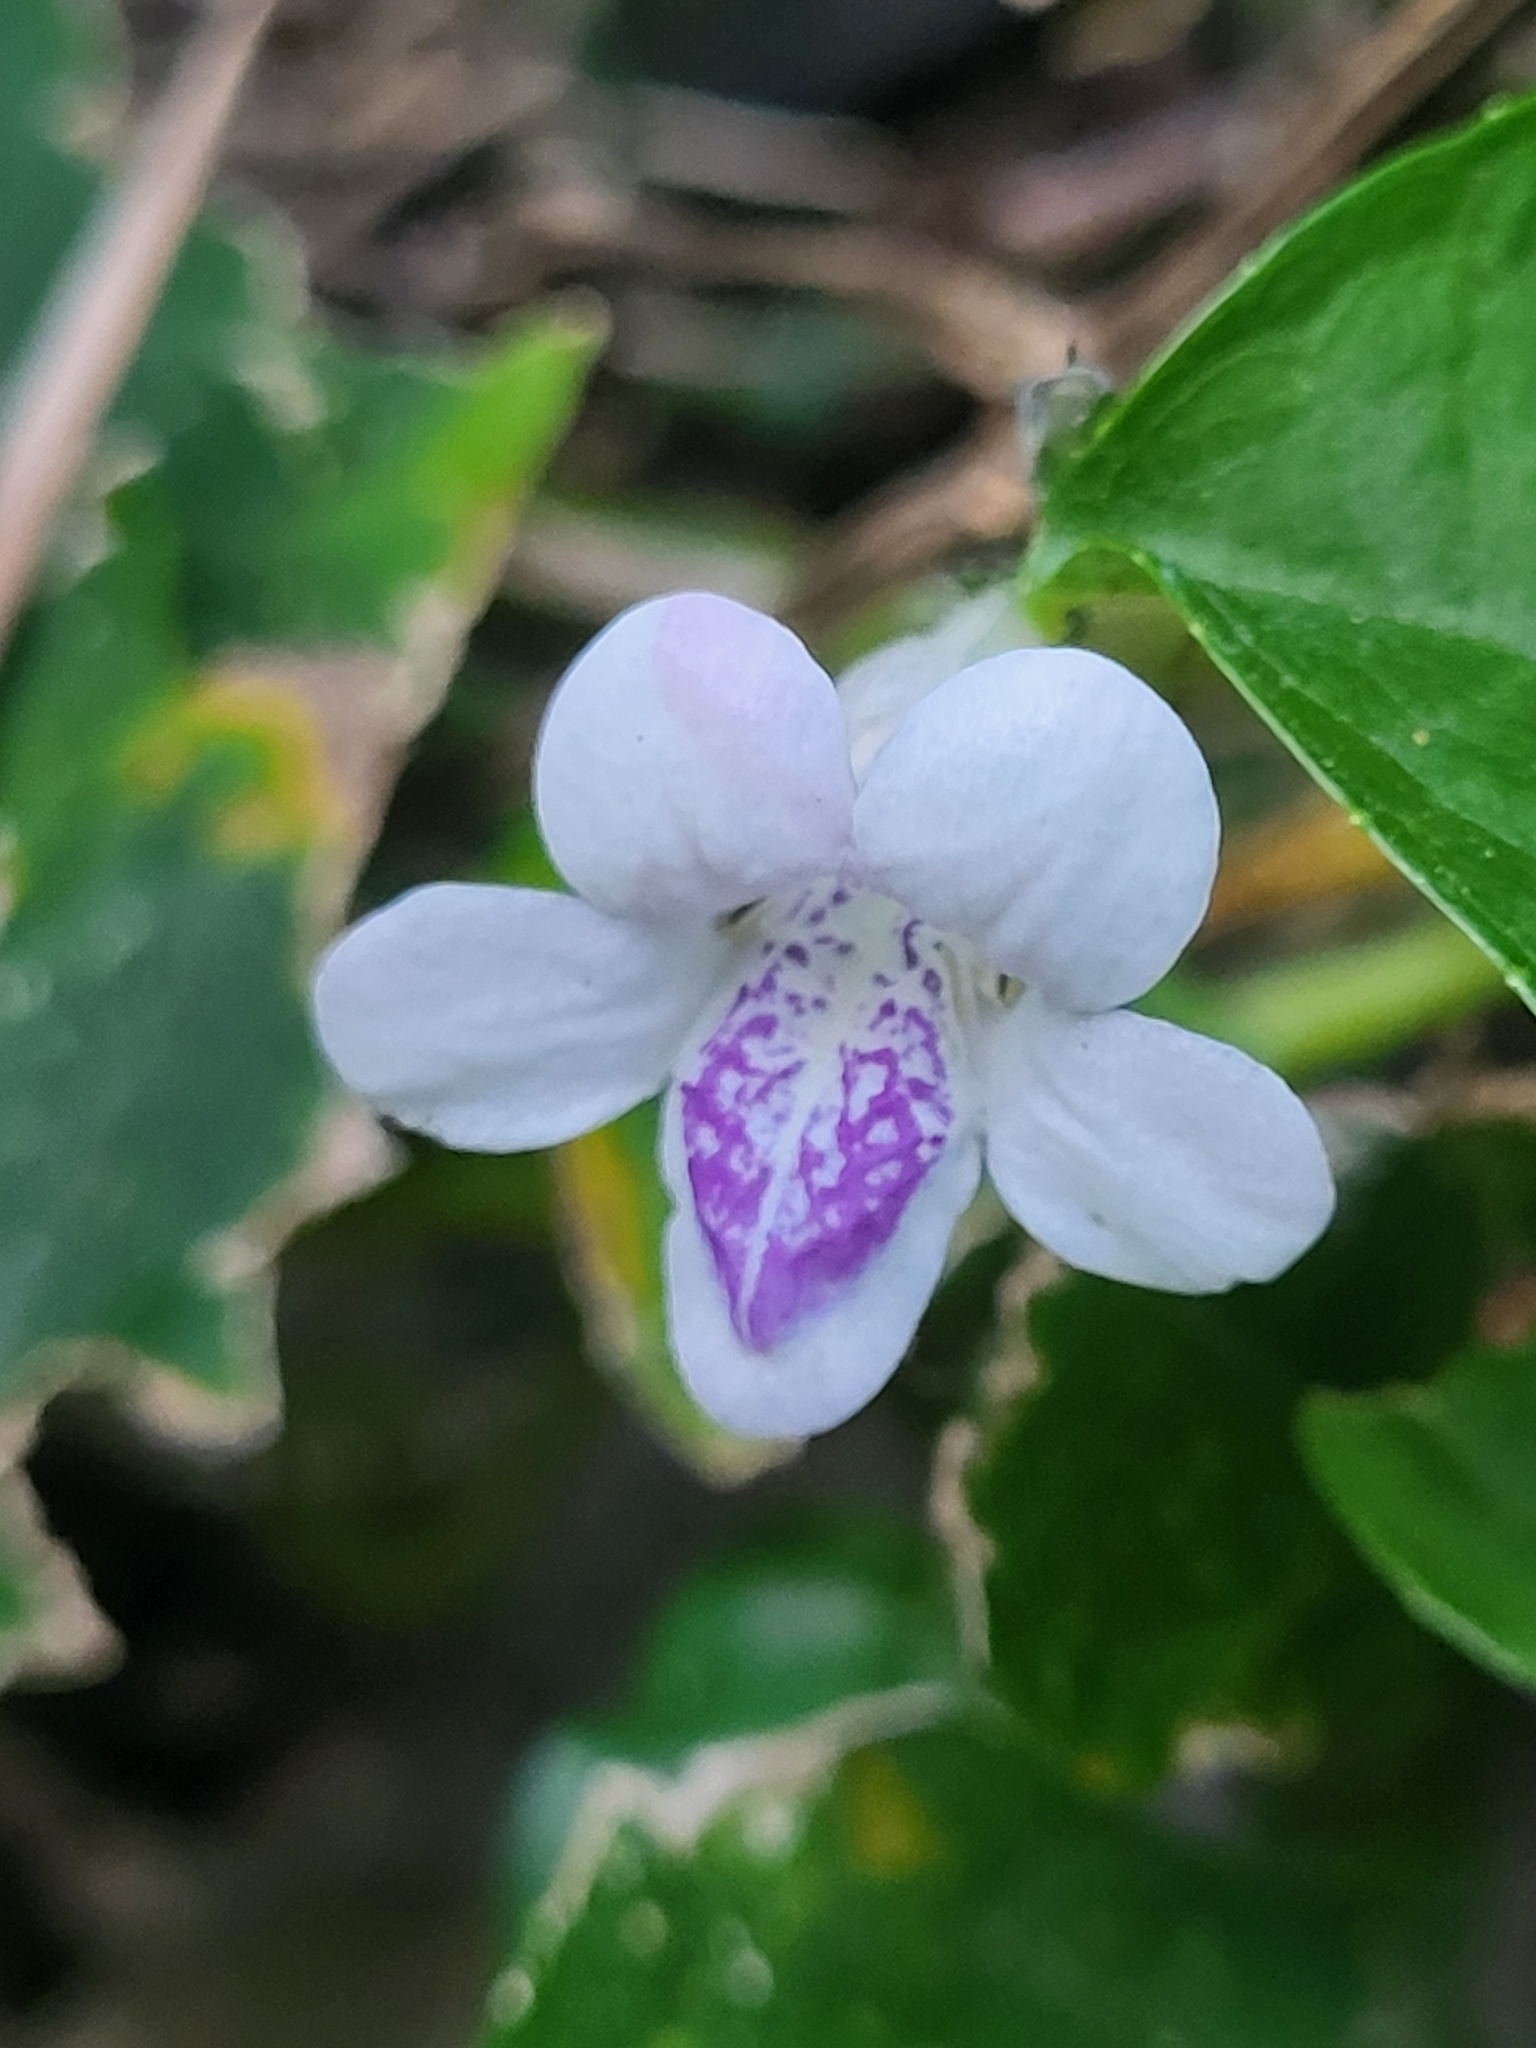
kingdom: Plantae
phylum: Tracheophyta
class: Magnoliopsida
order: Lamiales
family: Acanthaceae
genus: Asystasia
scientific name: Asystasia intrusa
